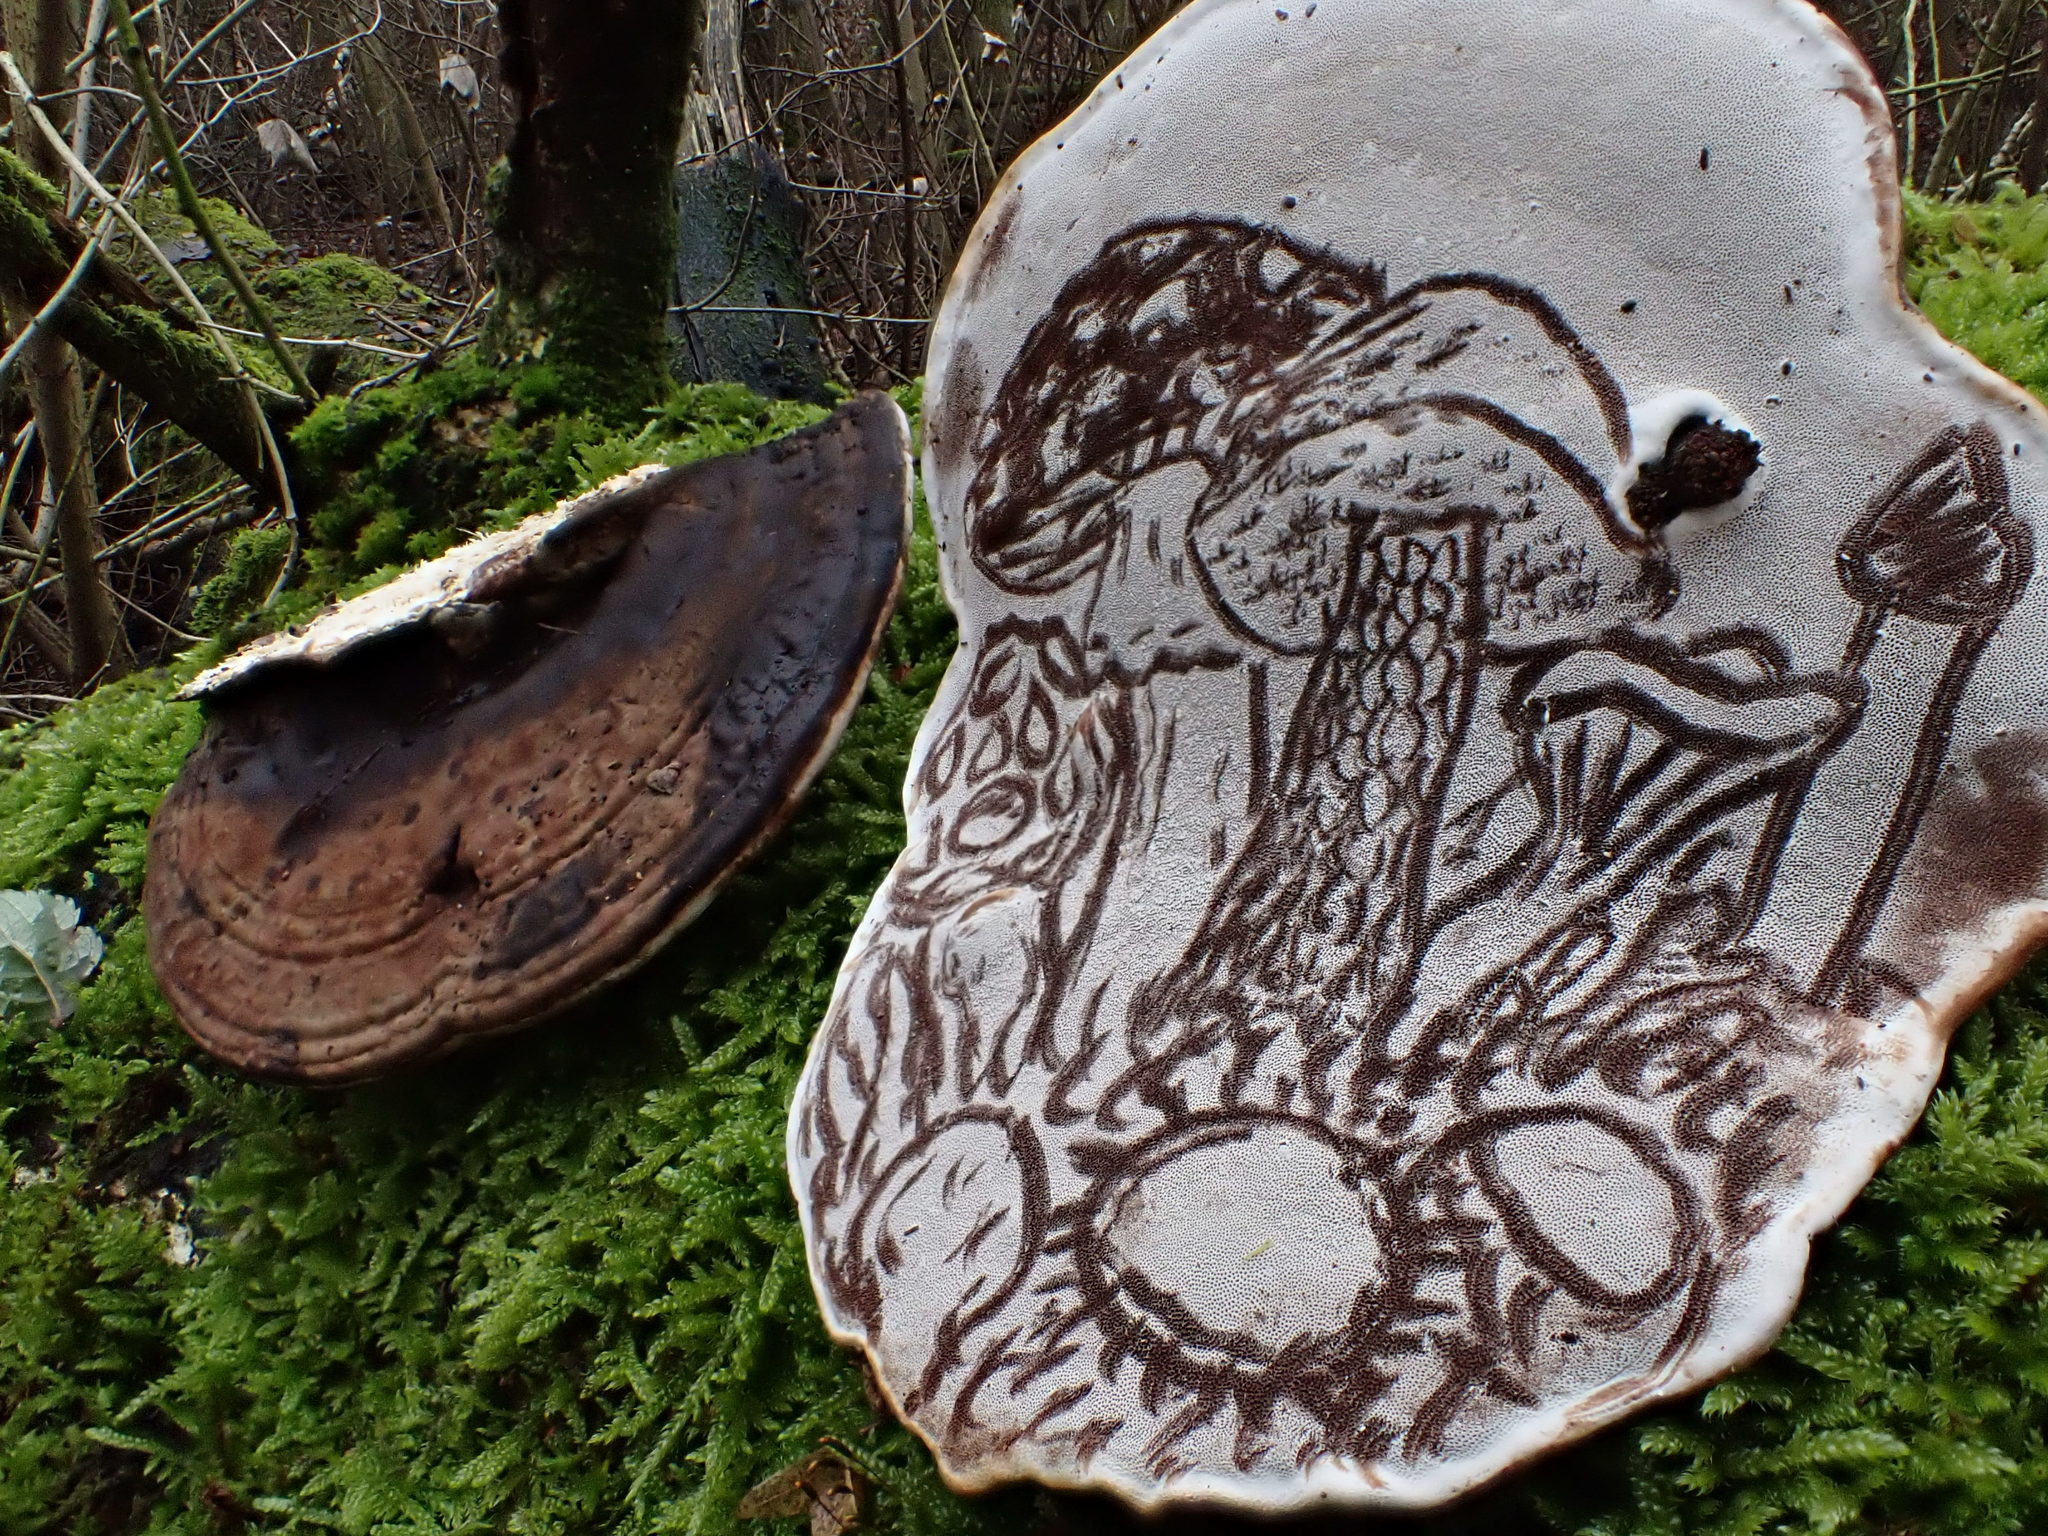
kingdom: Fungi
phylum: Basidiomycota
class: Agaricomycetes
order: Polyporales
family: Polyporaceae
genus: Ganoderma
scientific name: Ganoderma applanatum
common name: Artist's bracket
